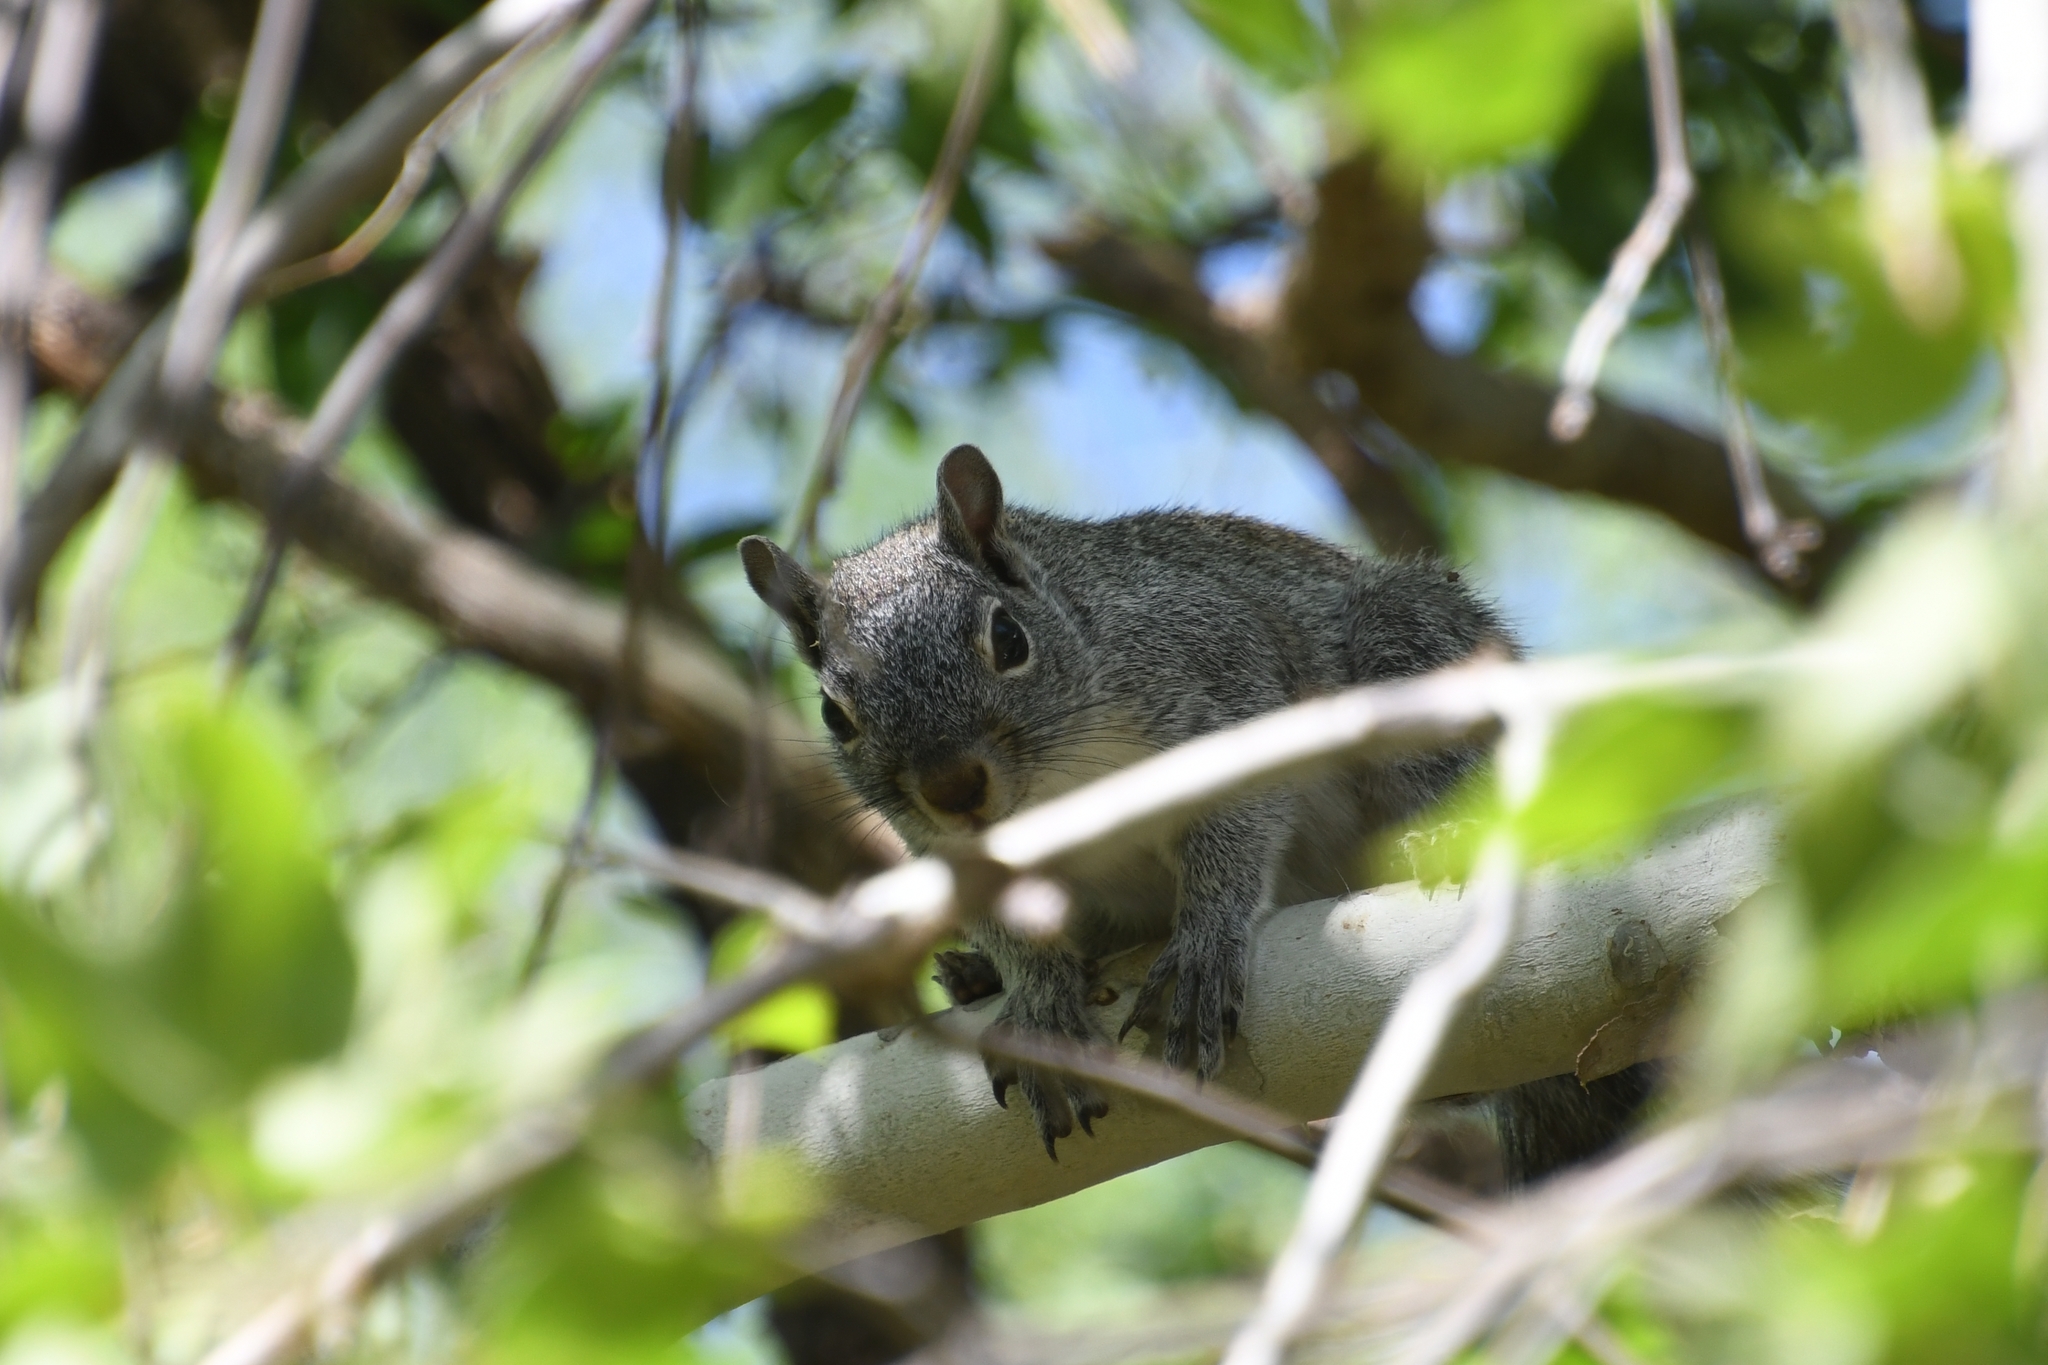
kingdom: Animalia
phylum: Chordata
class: Mammalia
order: Rodentia
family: Sciuridae
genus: Sciurus
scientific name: Sciurus arizonensis
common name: Arizona gray squirrel
